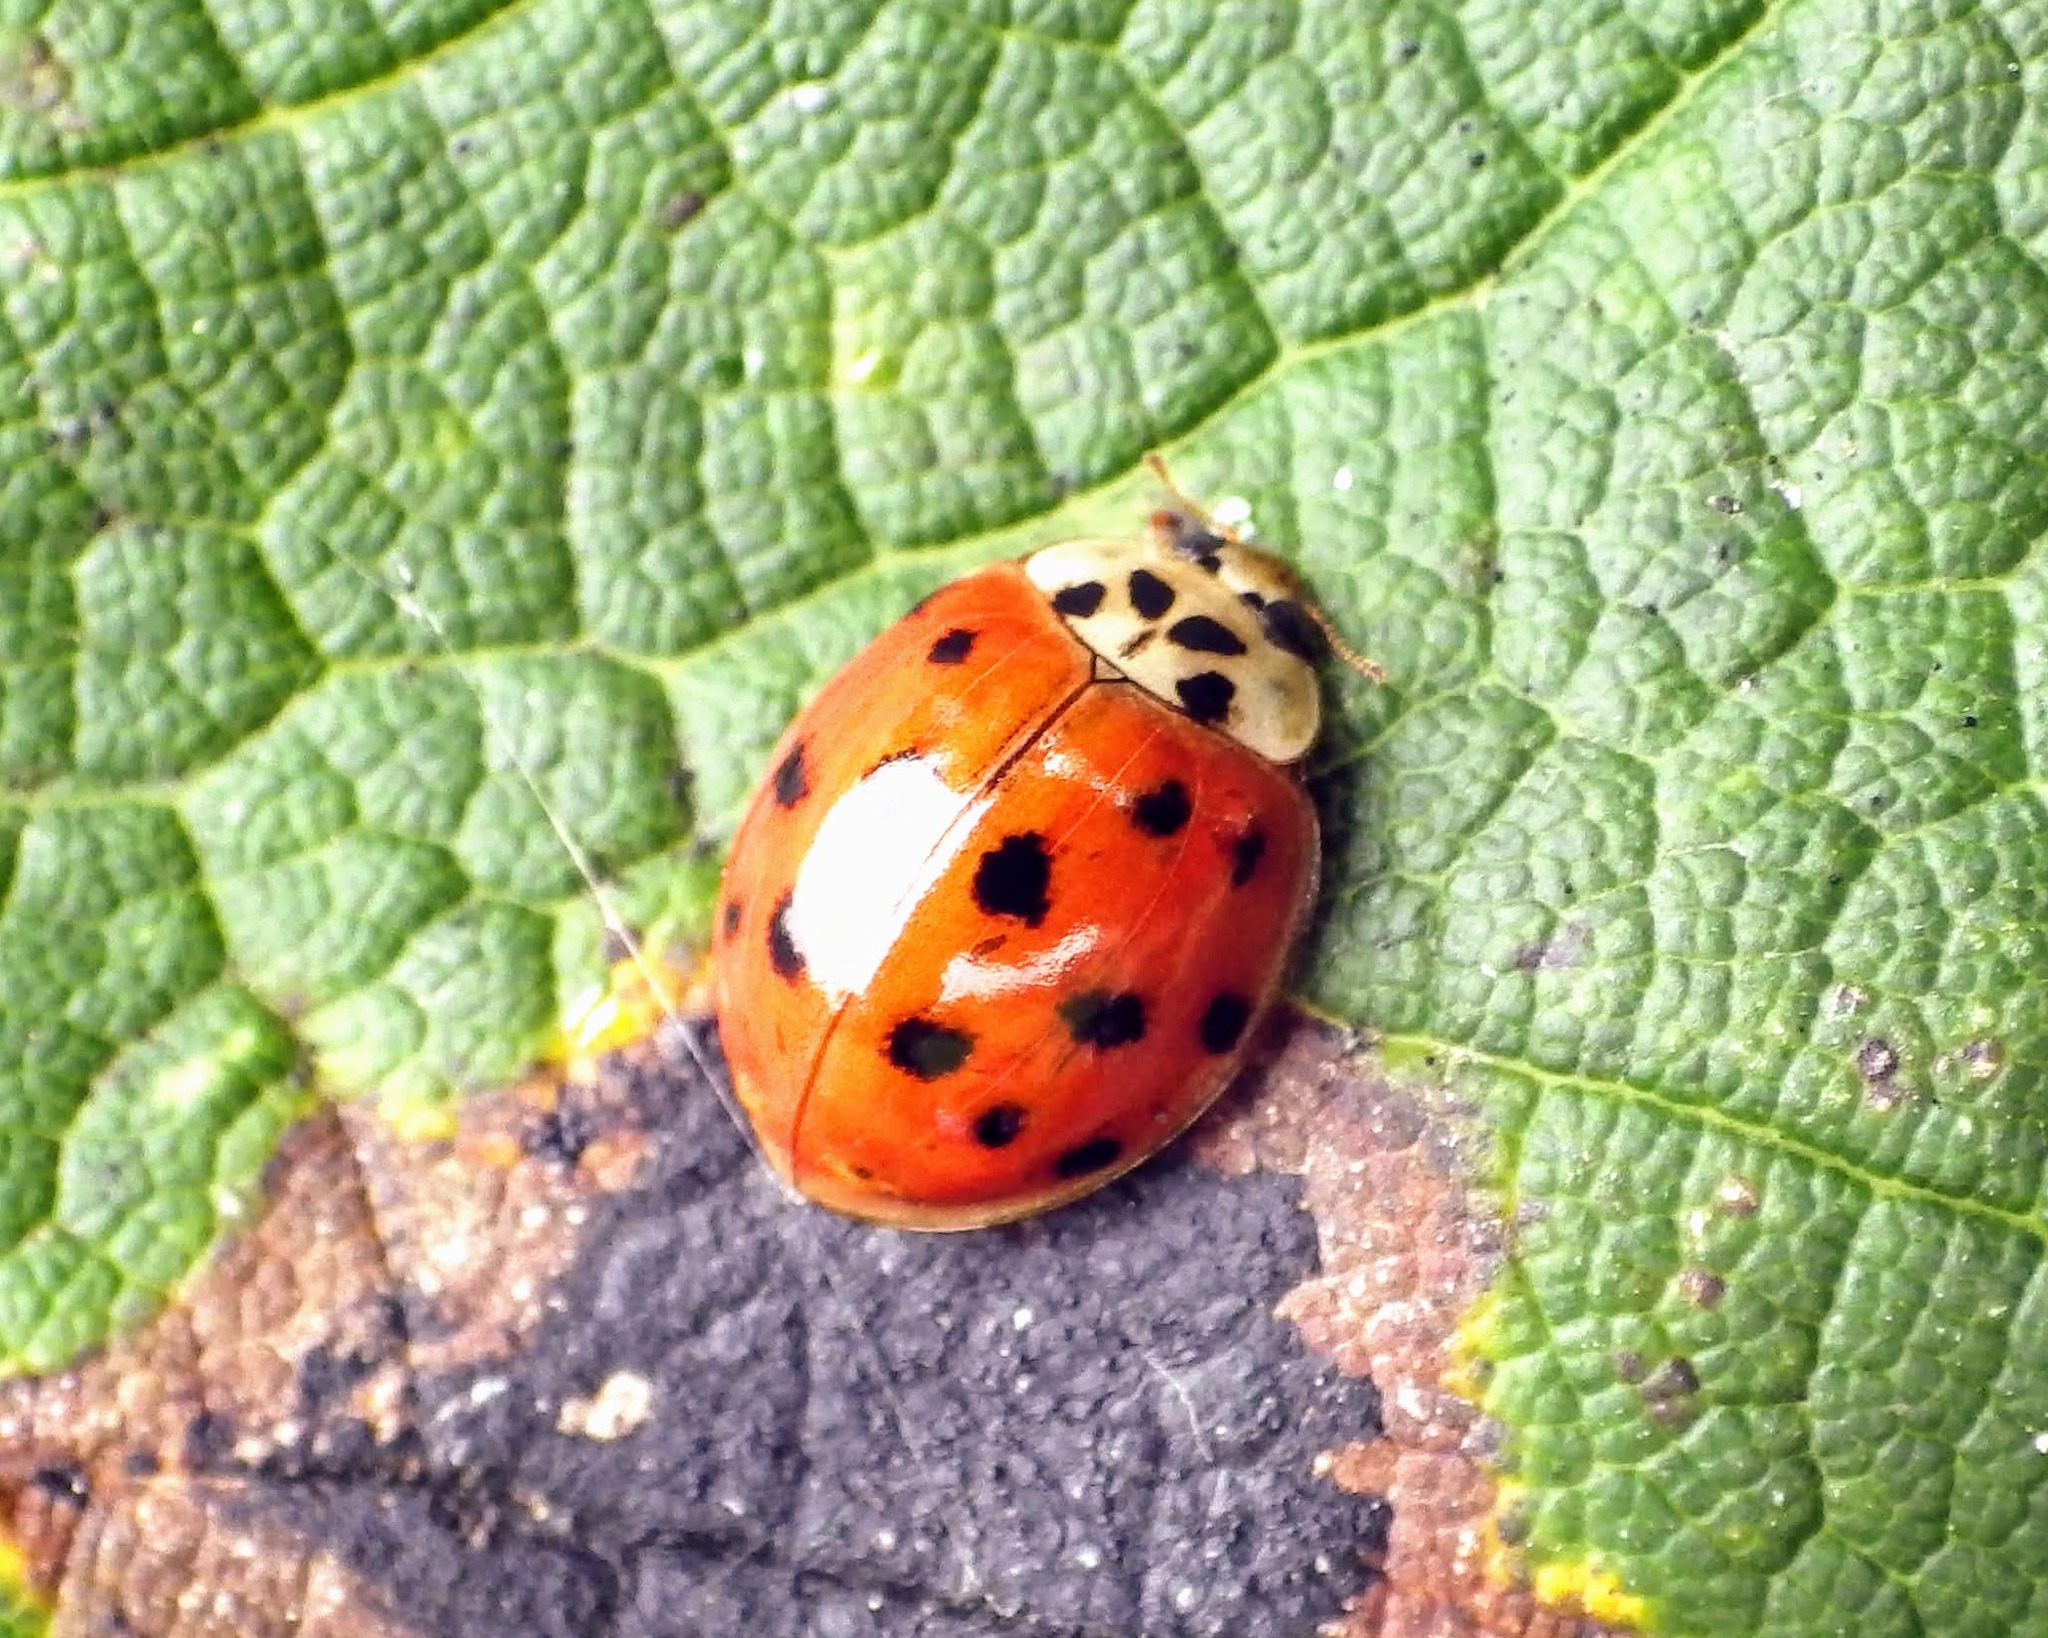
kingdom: Animalia
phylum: Arthropoda
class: Insecta
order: Coleoptera
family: Coccinellidae
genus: Harmonia
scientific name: Harmonia axyridis
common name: Harlequin ladybird
